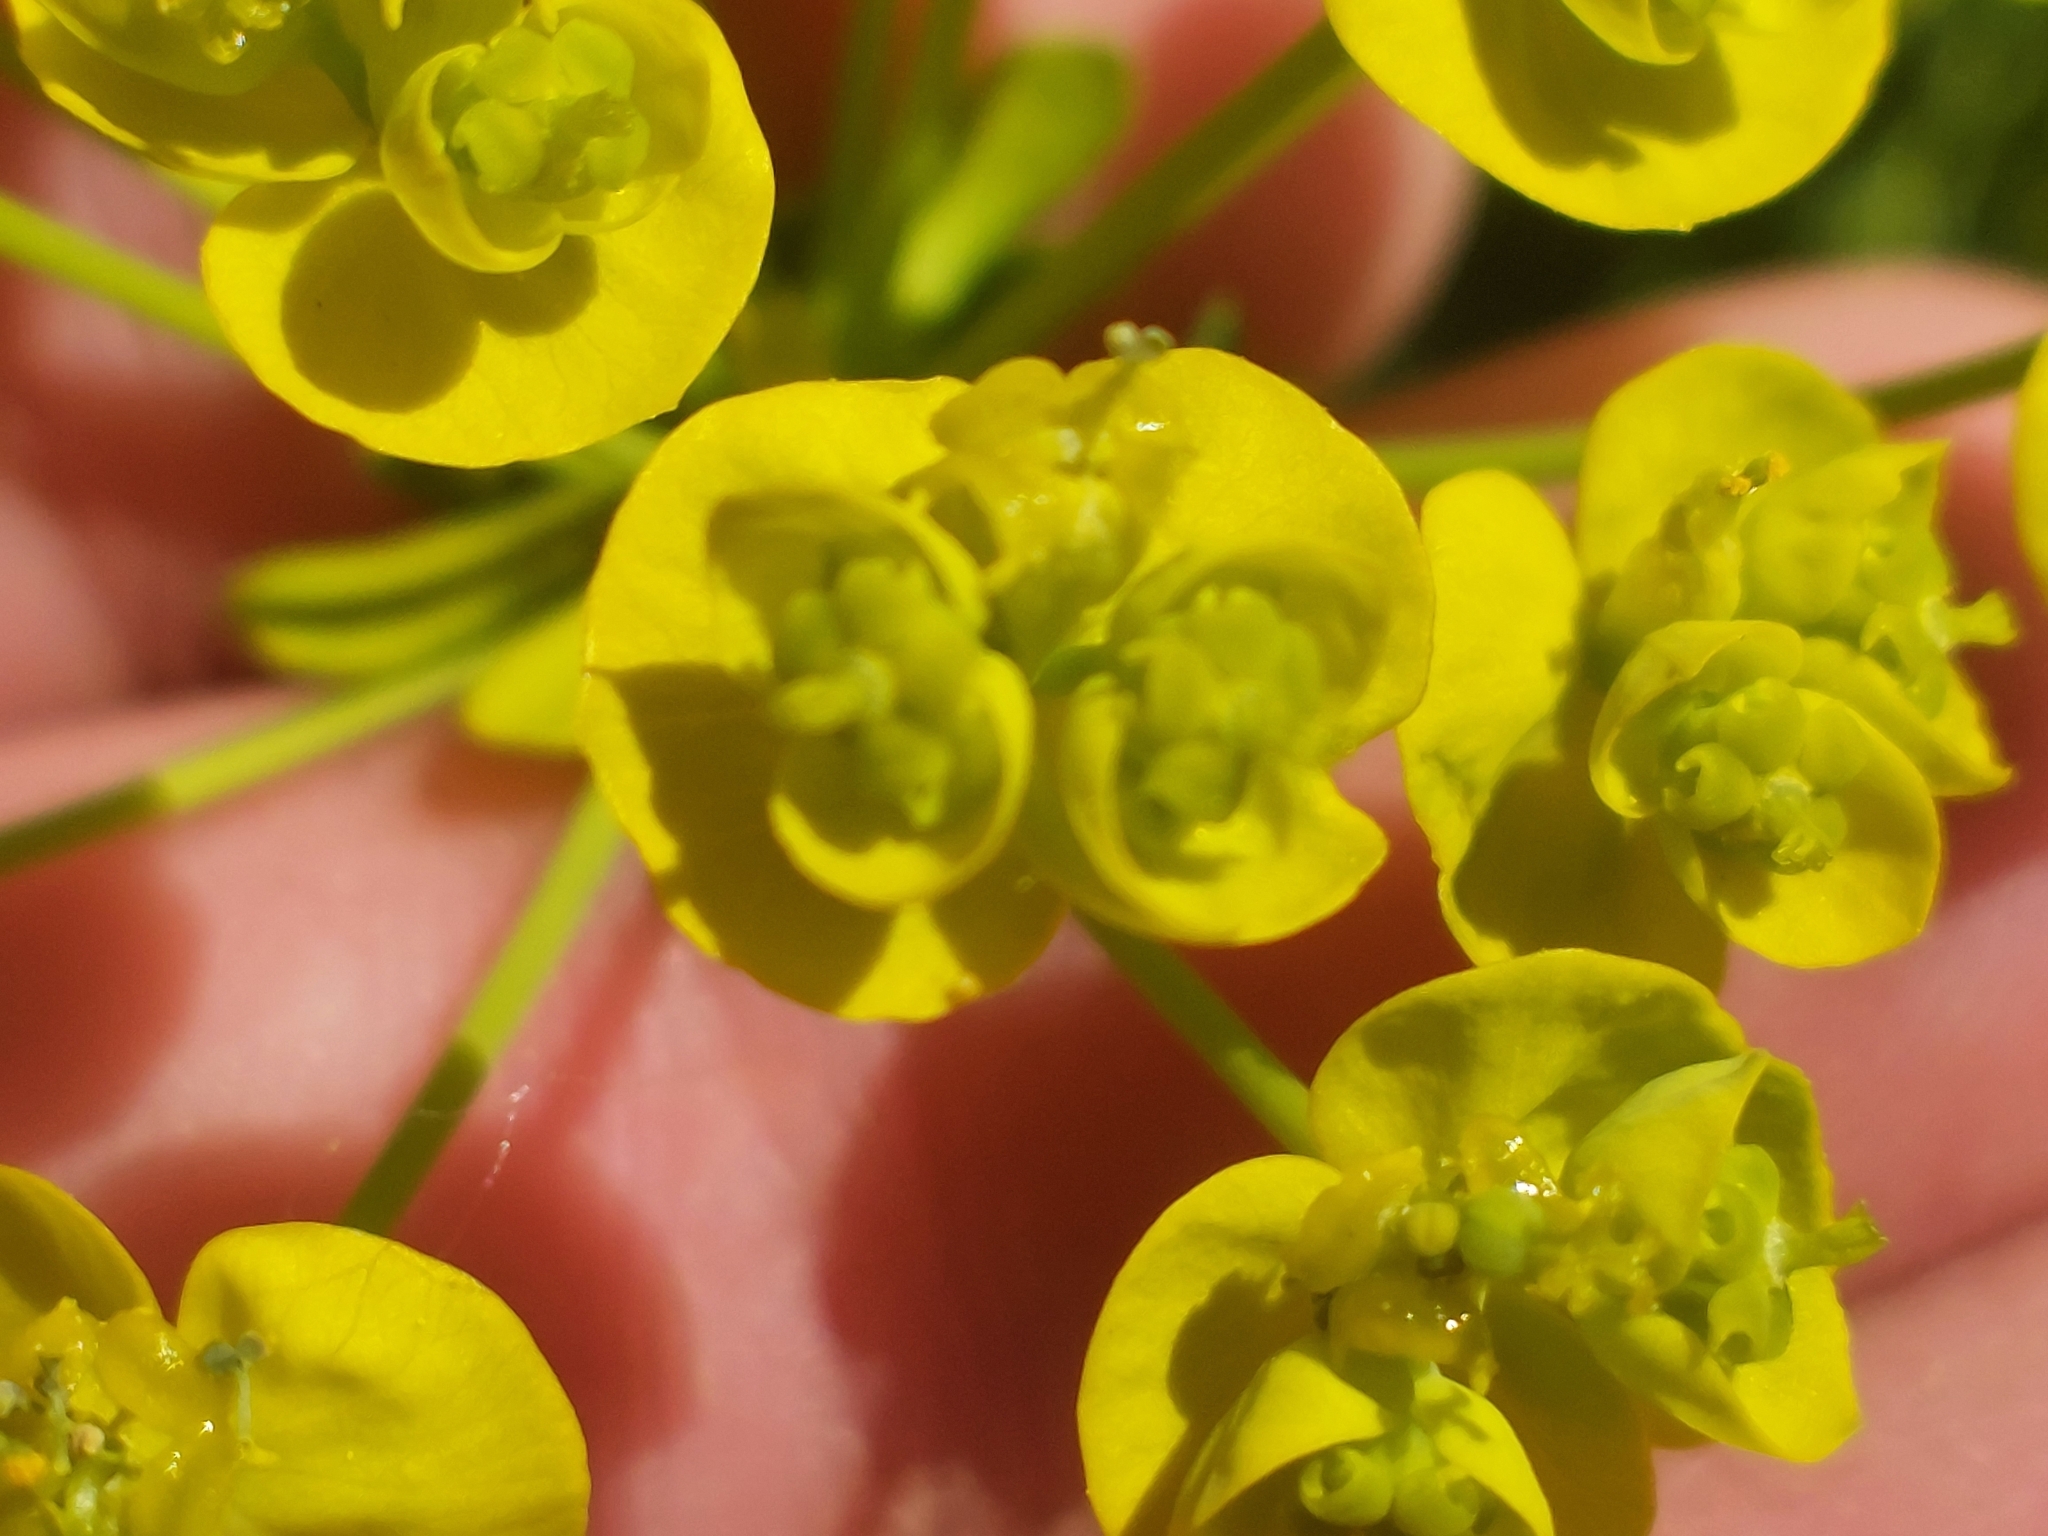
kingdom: Plantae
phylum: Tracheophyta
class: Magnoliopsida
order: Malpighiales
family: Euphorbiaceae
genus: Euphorbia
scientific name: Euphorbia cyparissias
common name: Cypress spurge
